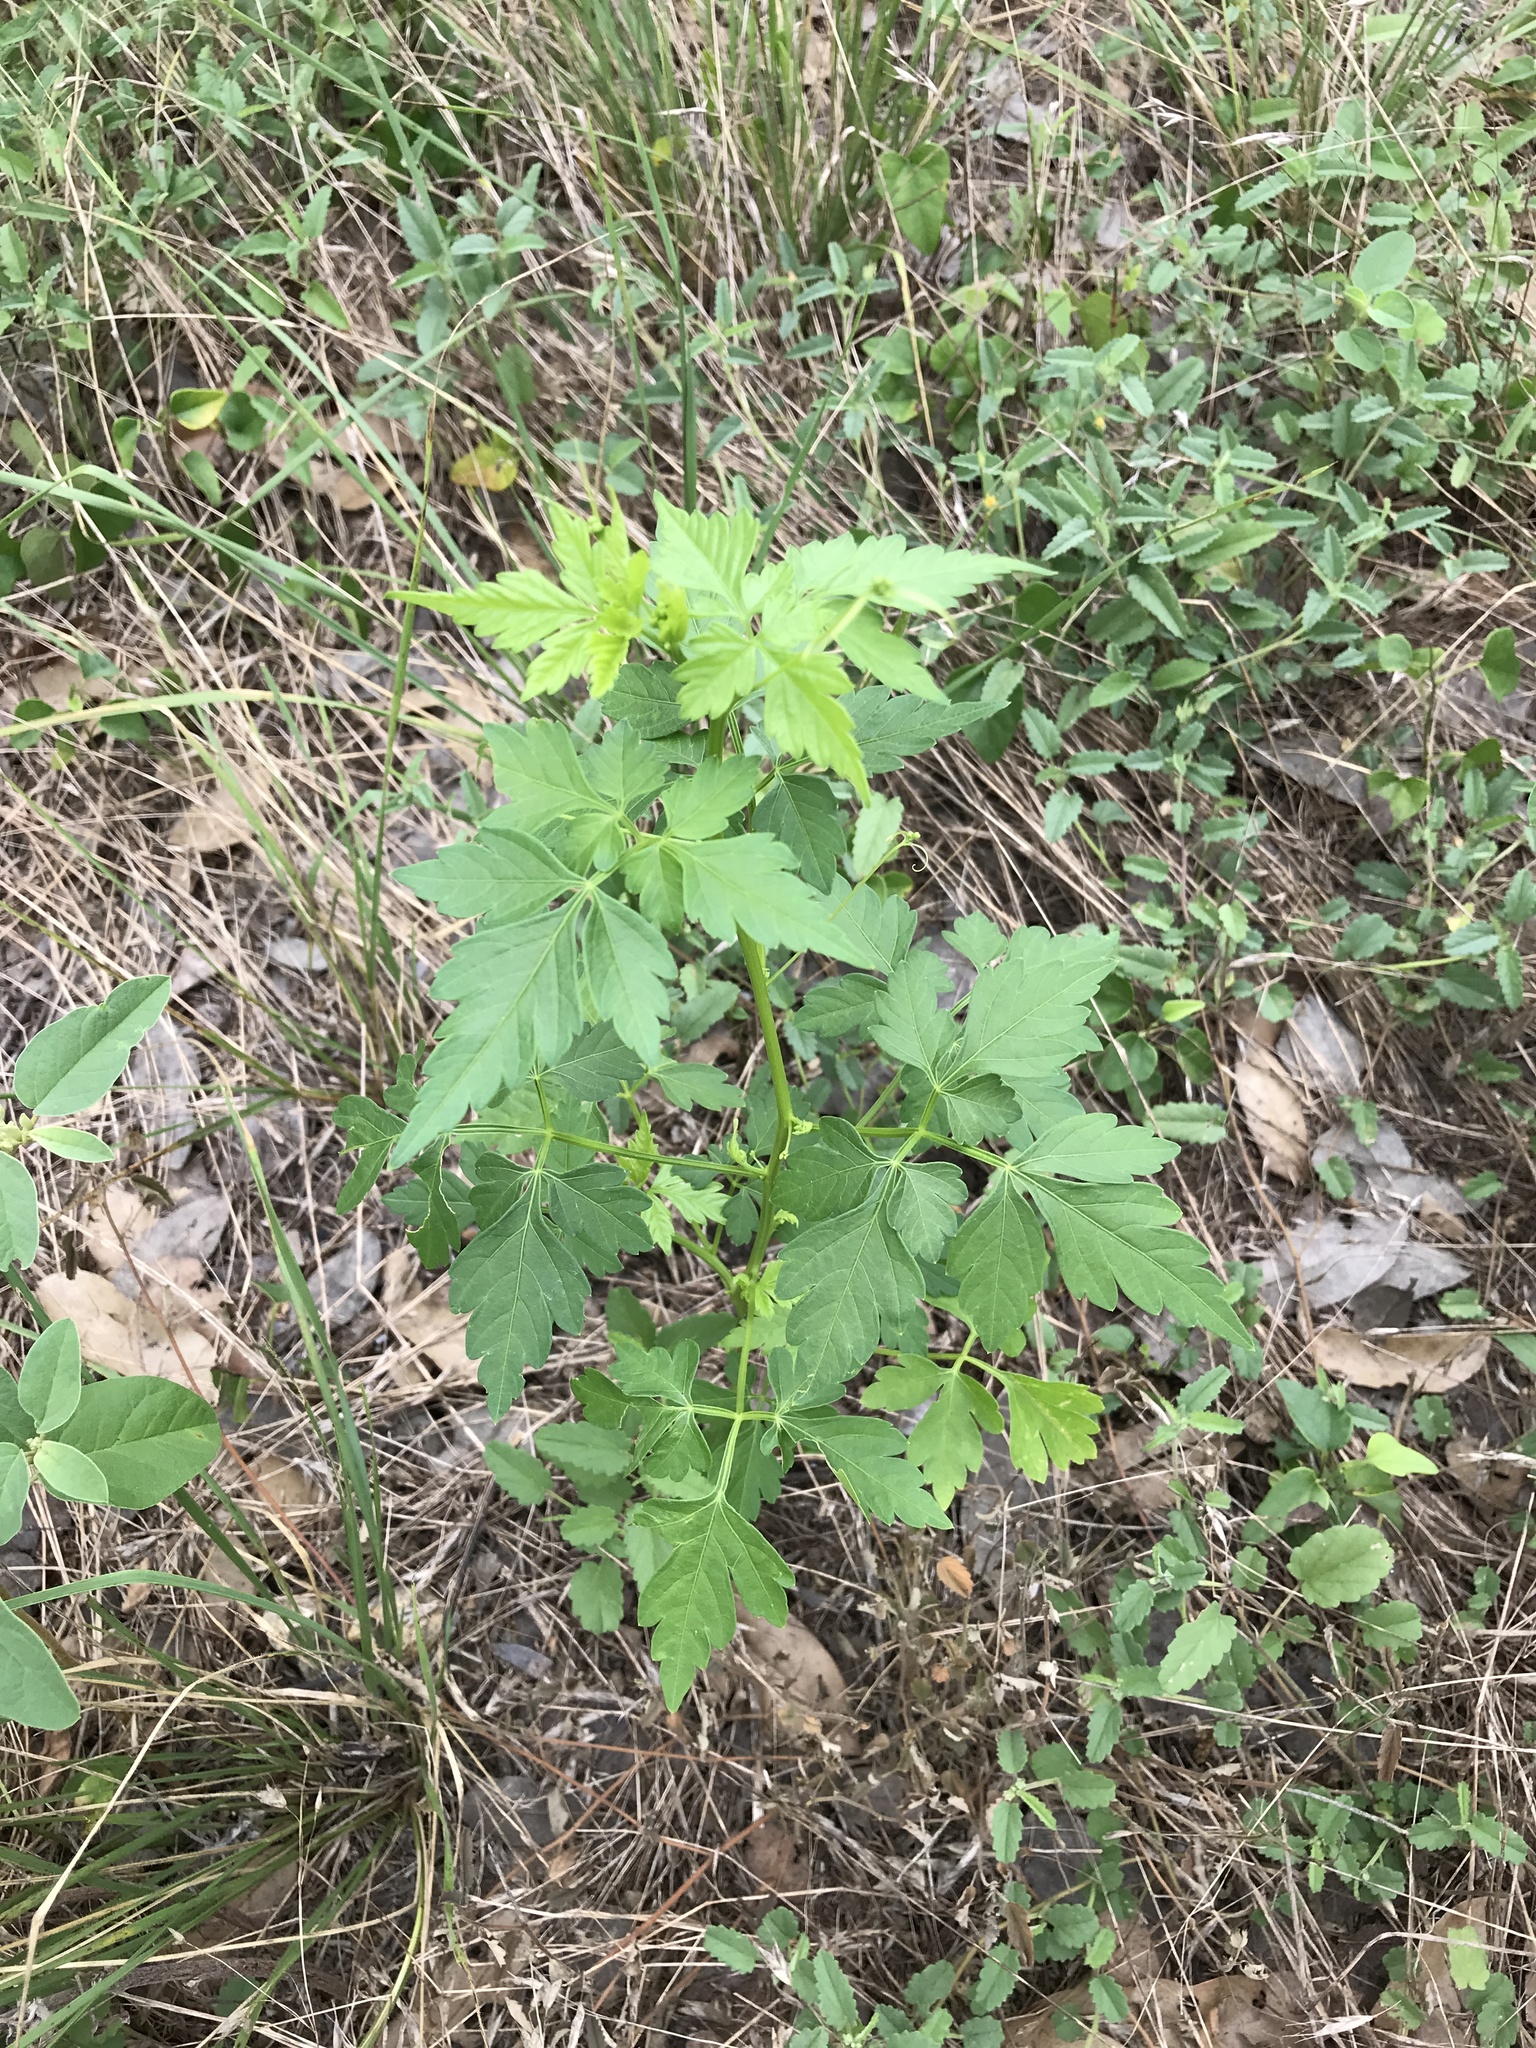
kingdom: Plantae
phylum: Tracheophyta
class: Magnoliopsida
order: Sapindales
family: Sapindaceae
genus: Cardiospermum
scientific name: Cardiospermum halicacabum
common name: Balloon vine
